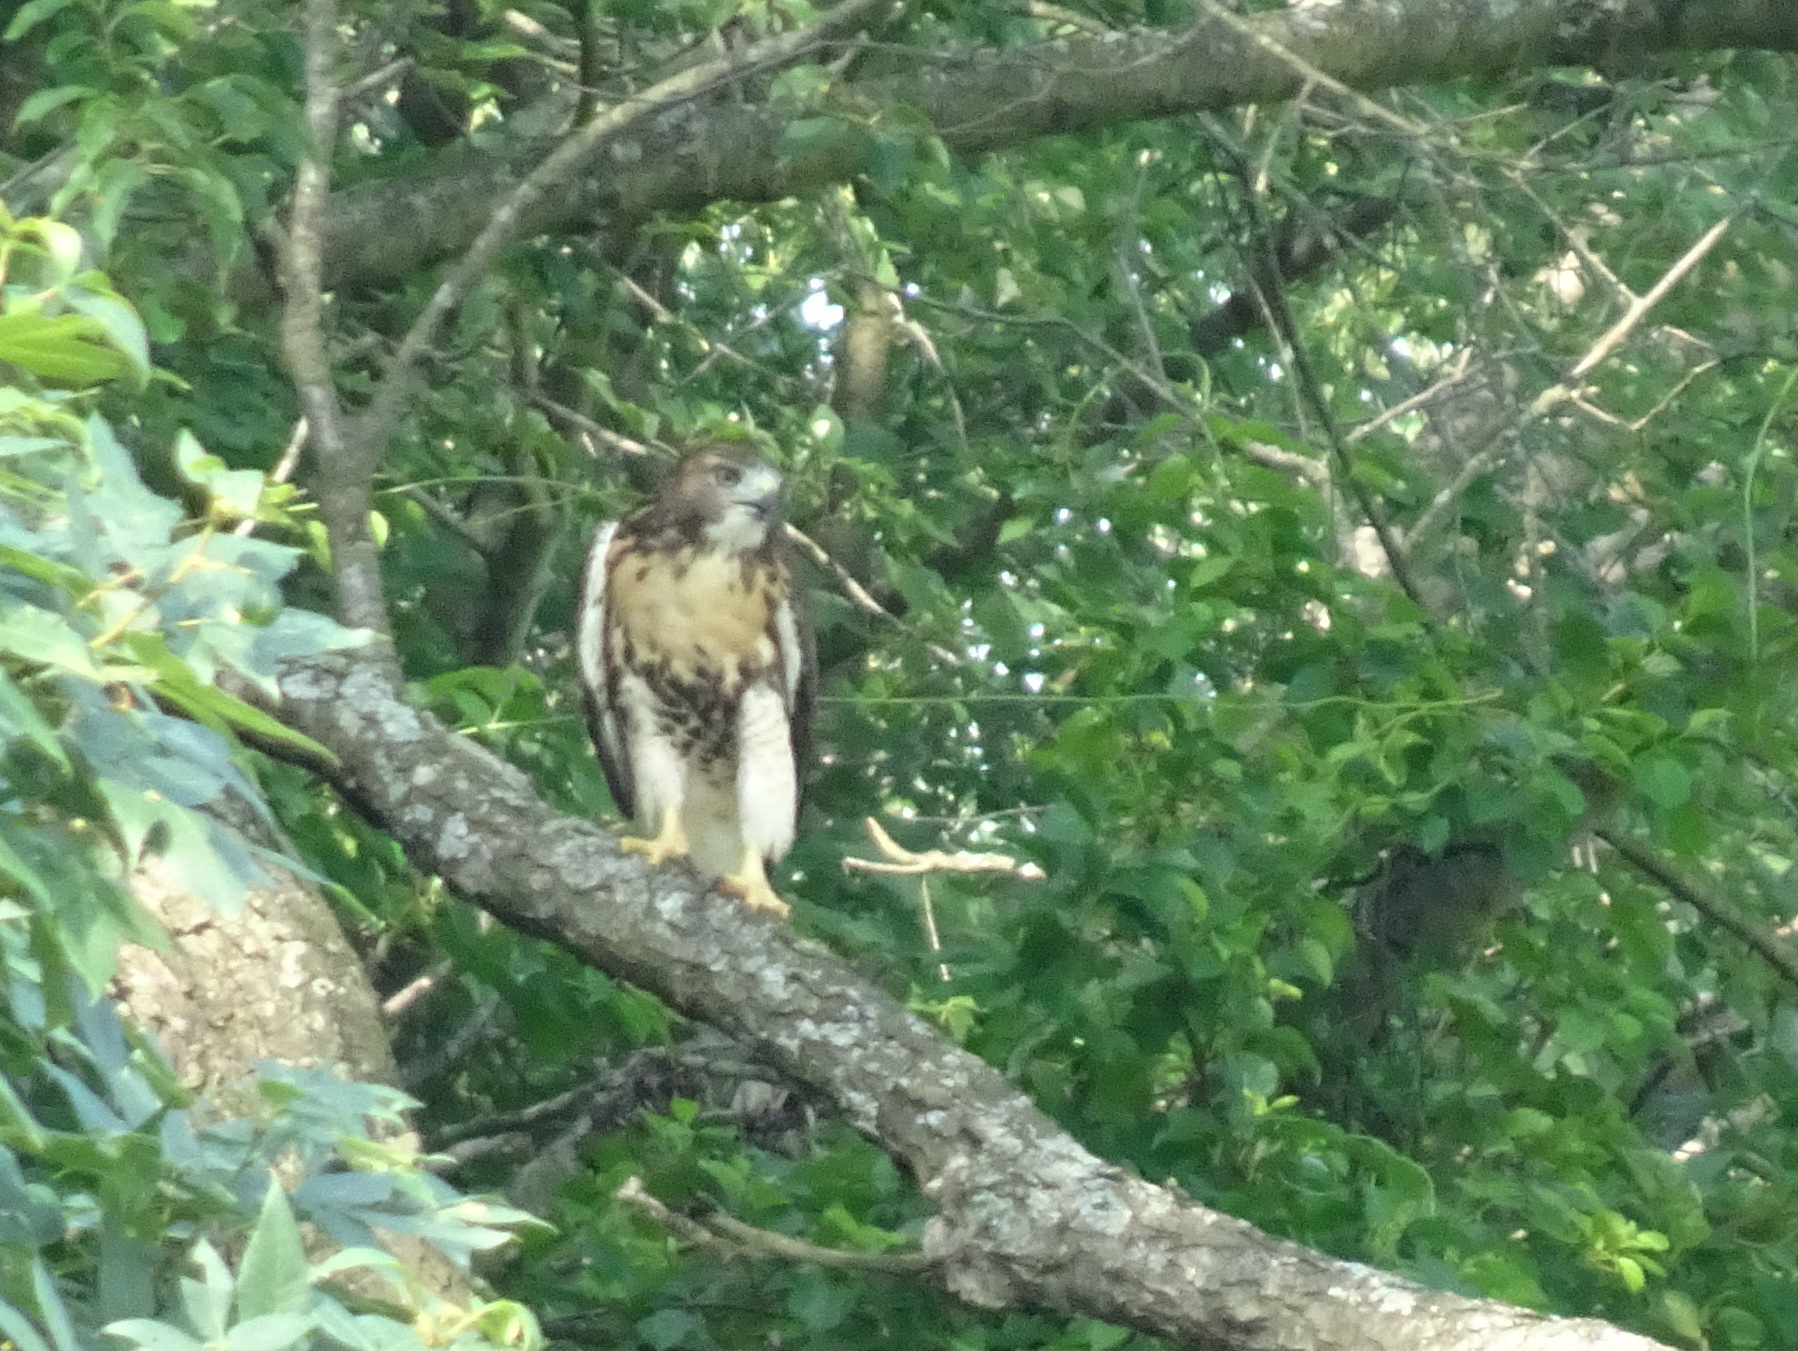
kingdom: Animalia
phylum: Chordata
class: Aves
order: Accipitriformes
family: Accipitridae
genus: Buteo
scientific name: Buteo jamaicensis
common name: Red-tailed hawk
